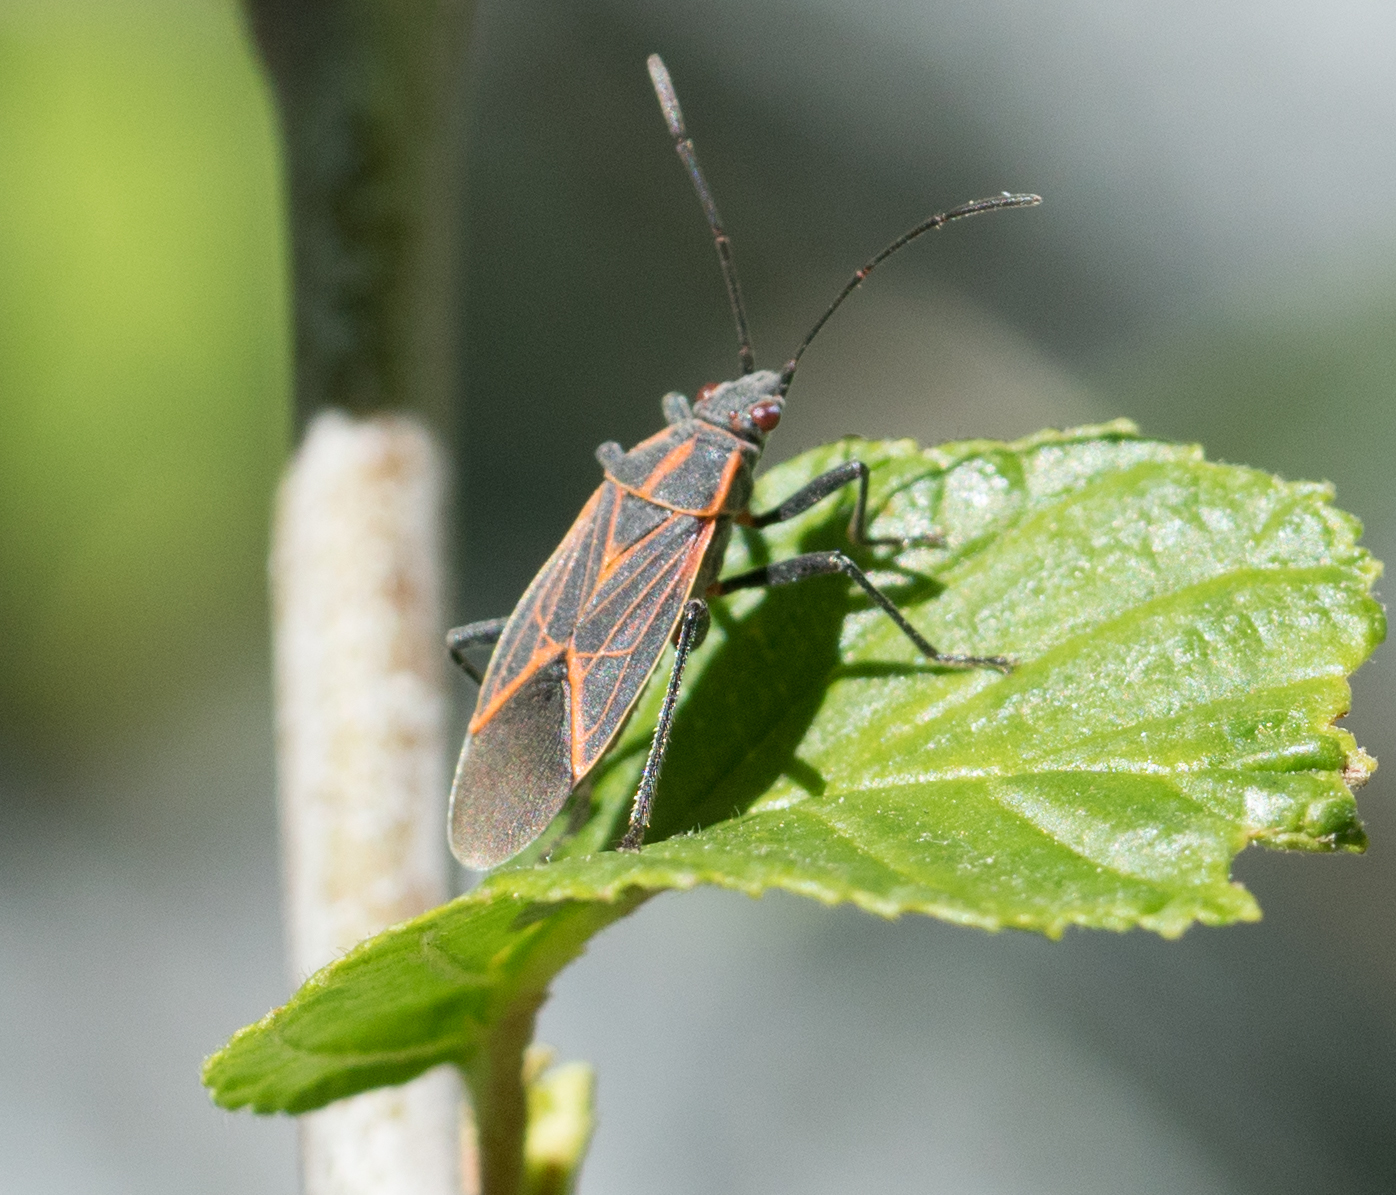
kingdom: Animalia
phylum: Arthropoda
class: Insecta
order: Hemiptera
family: Rhopalidae
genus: Boisea
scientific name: Boisea rubrolineata
